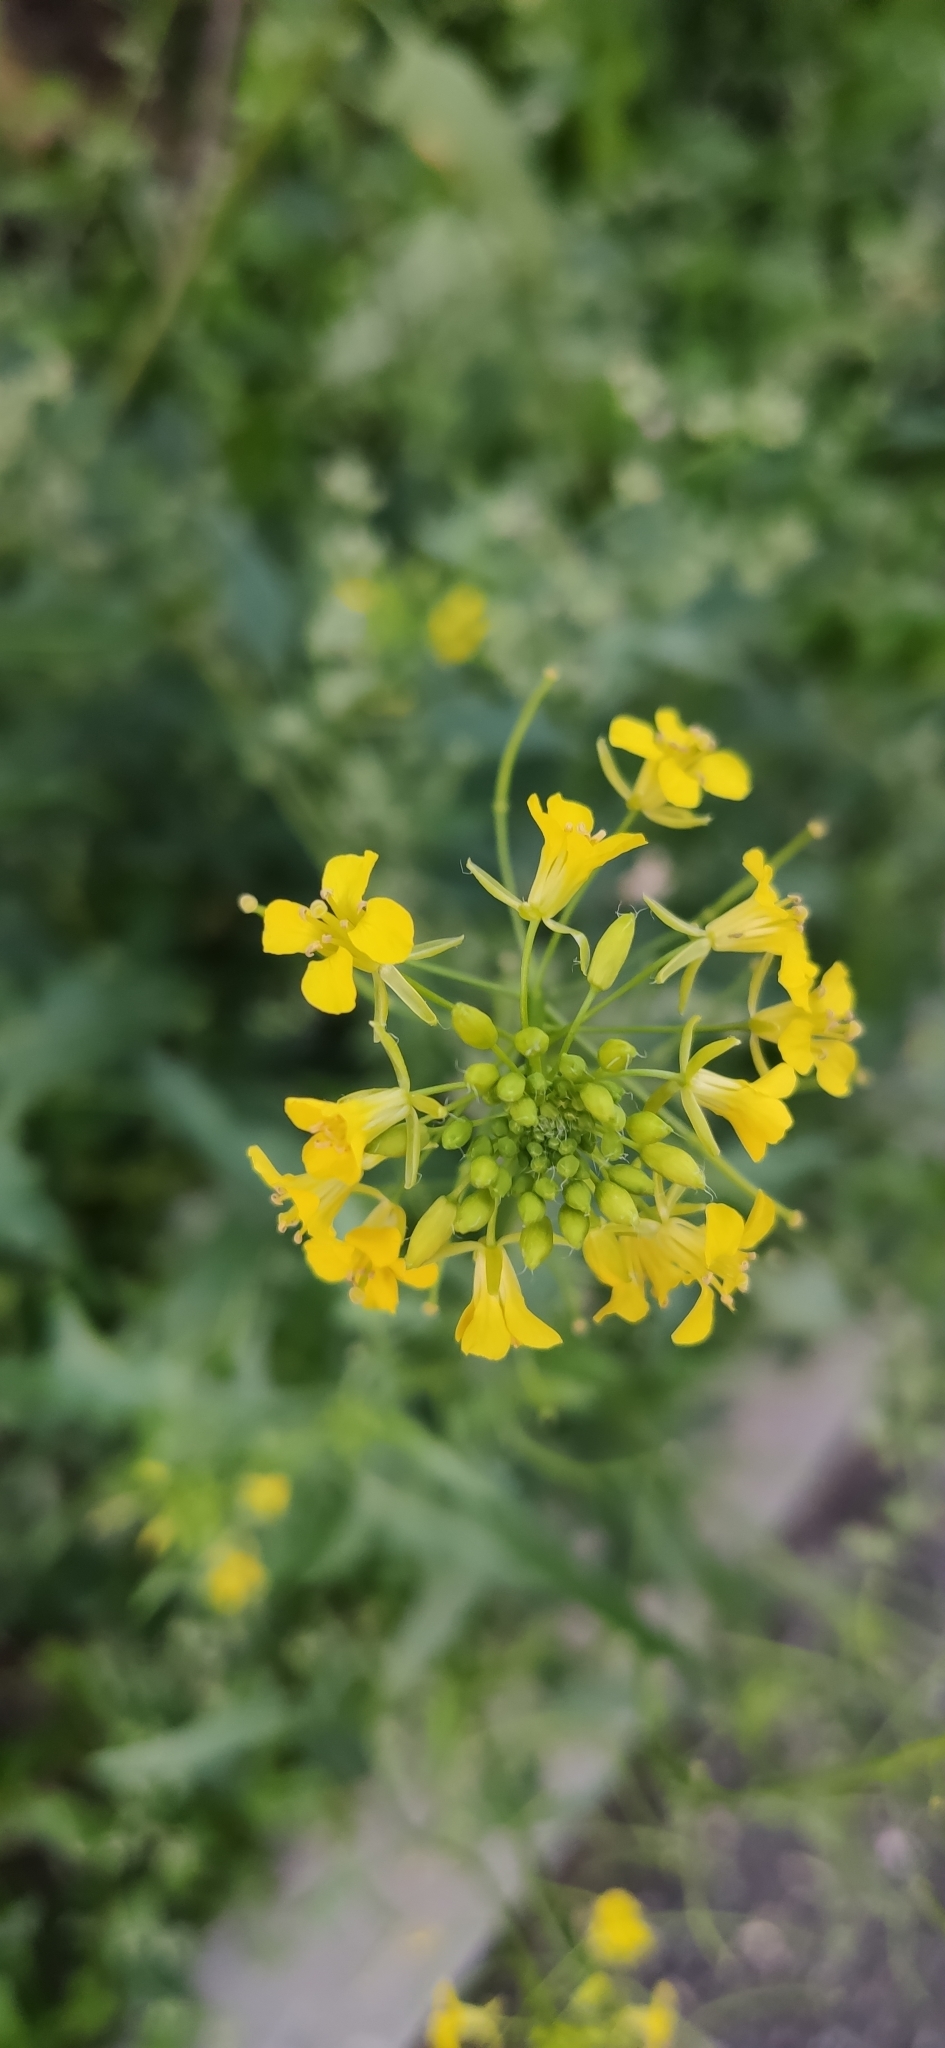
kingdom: Plantae
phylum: Tracheophyta
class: Magnoliopsida
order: Brassicales
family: Brassicaceae
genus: Sisymbrium
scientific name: Sisymbrium loeselii
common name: False london-rocket
